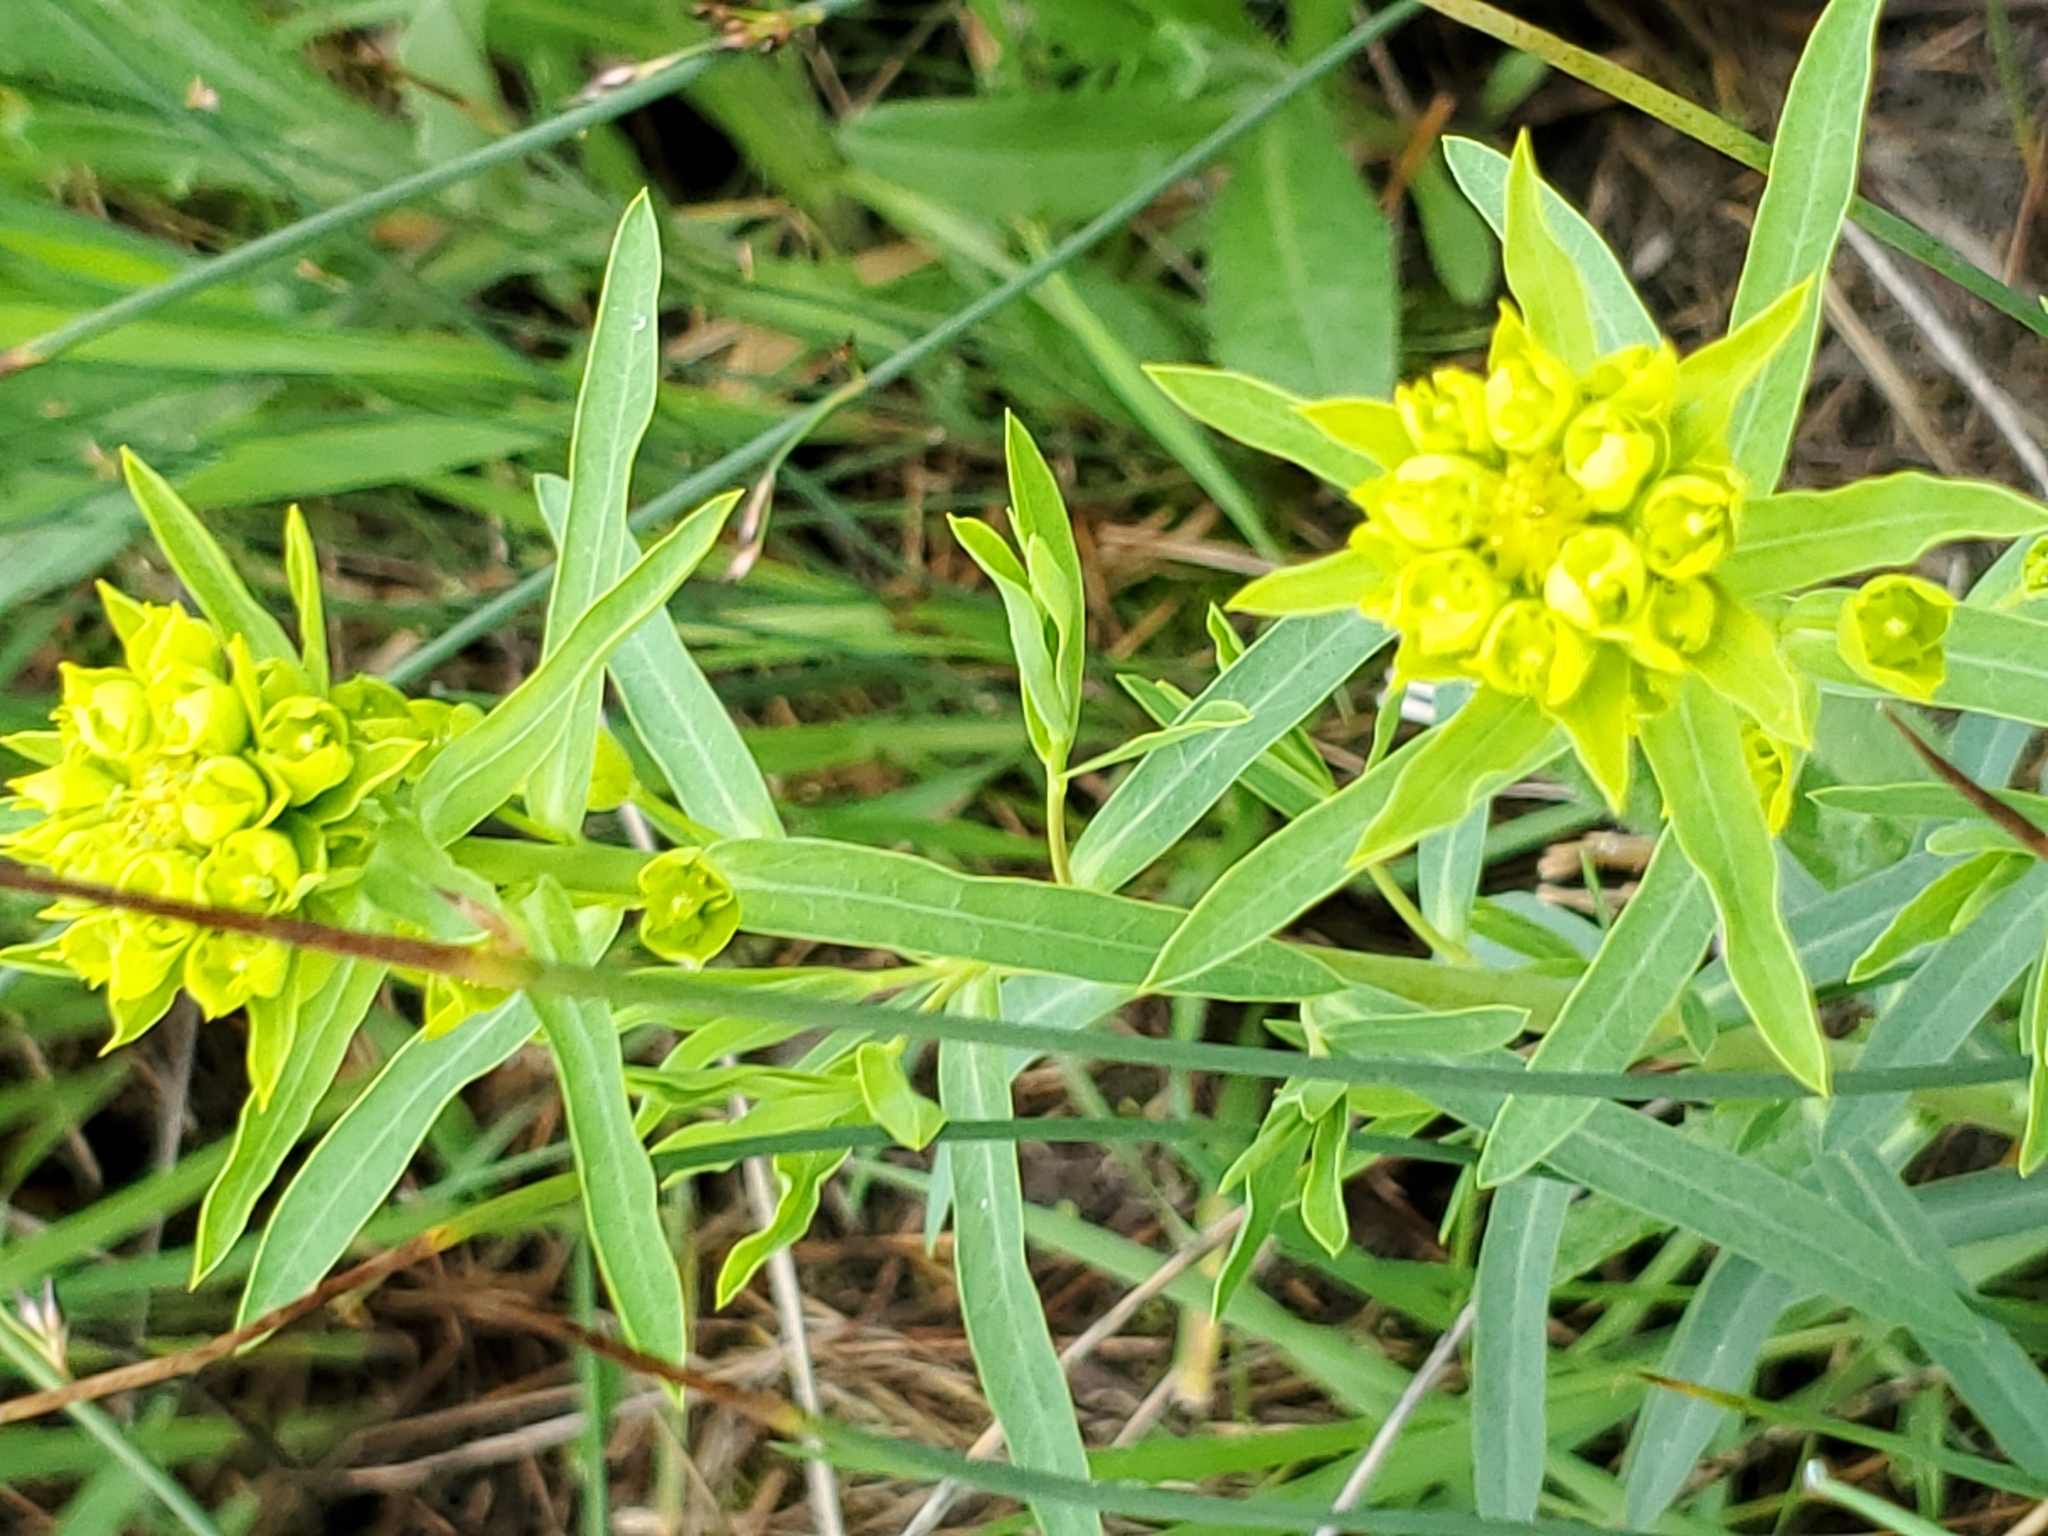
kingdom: Plantae
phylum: Tracheophyta
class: Magnoliopsida
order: Malpighiales
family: Euphorbiaceae
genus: Euphorbia
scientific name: Euphorbia virgata
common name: Leafy spurge
